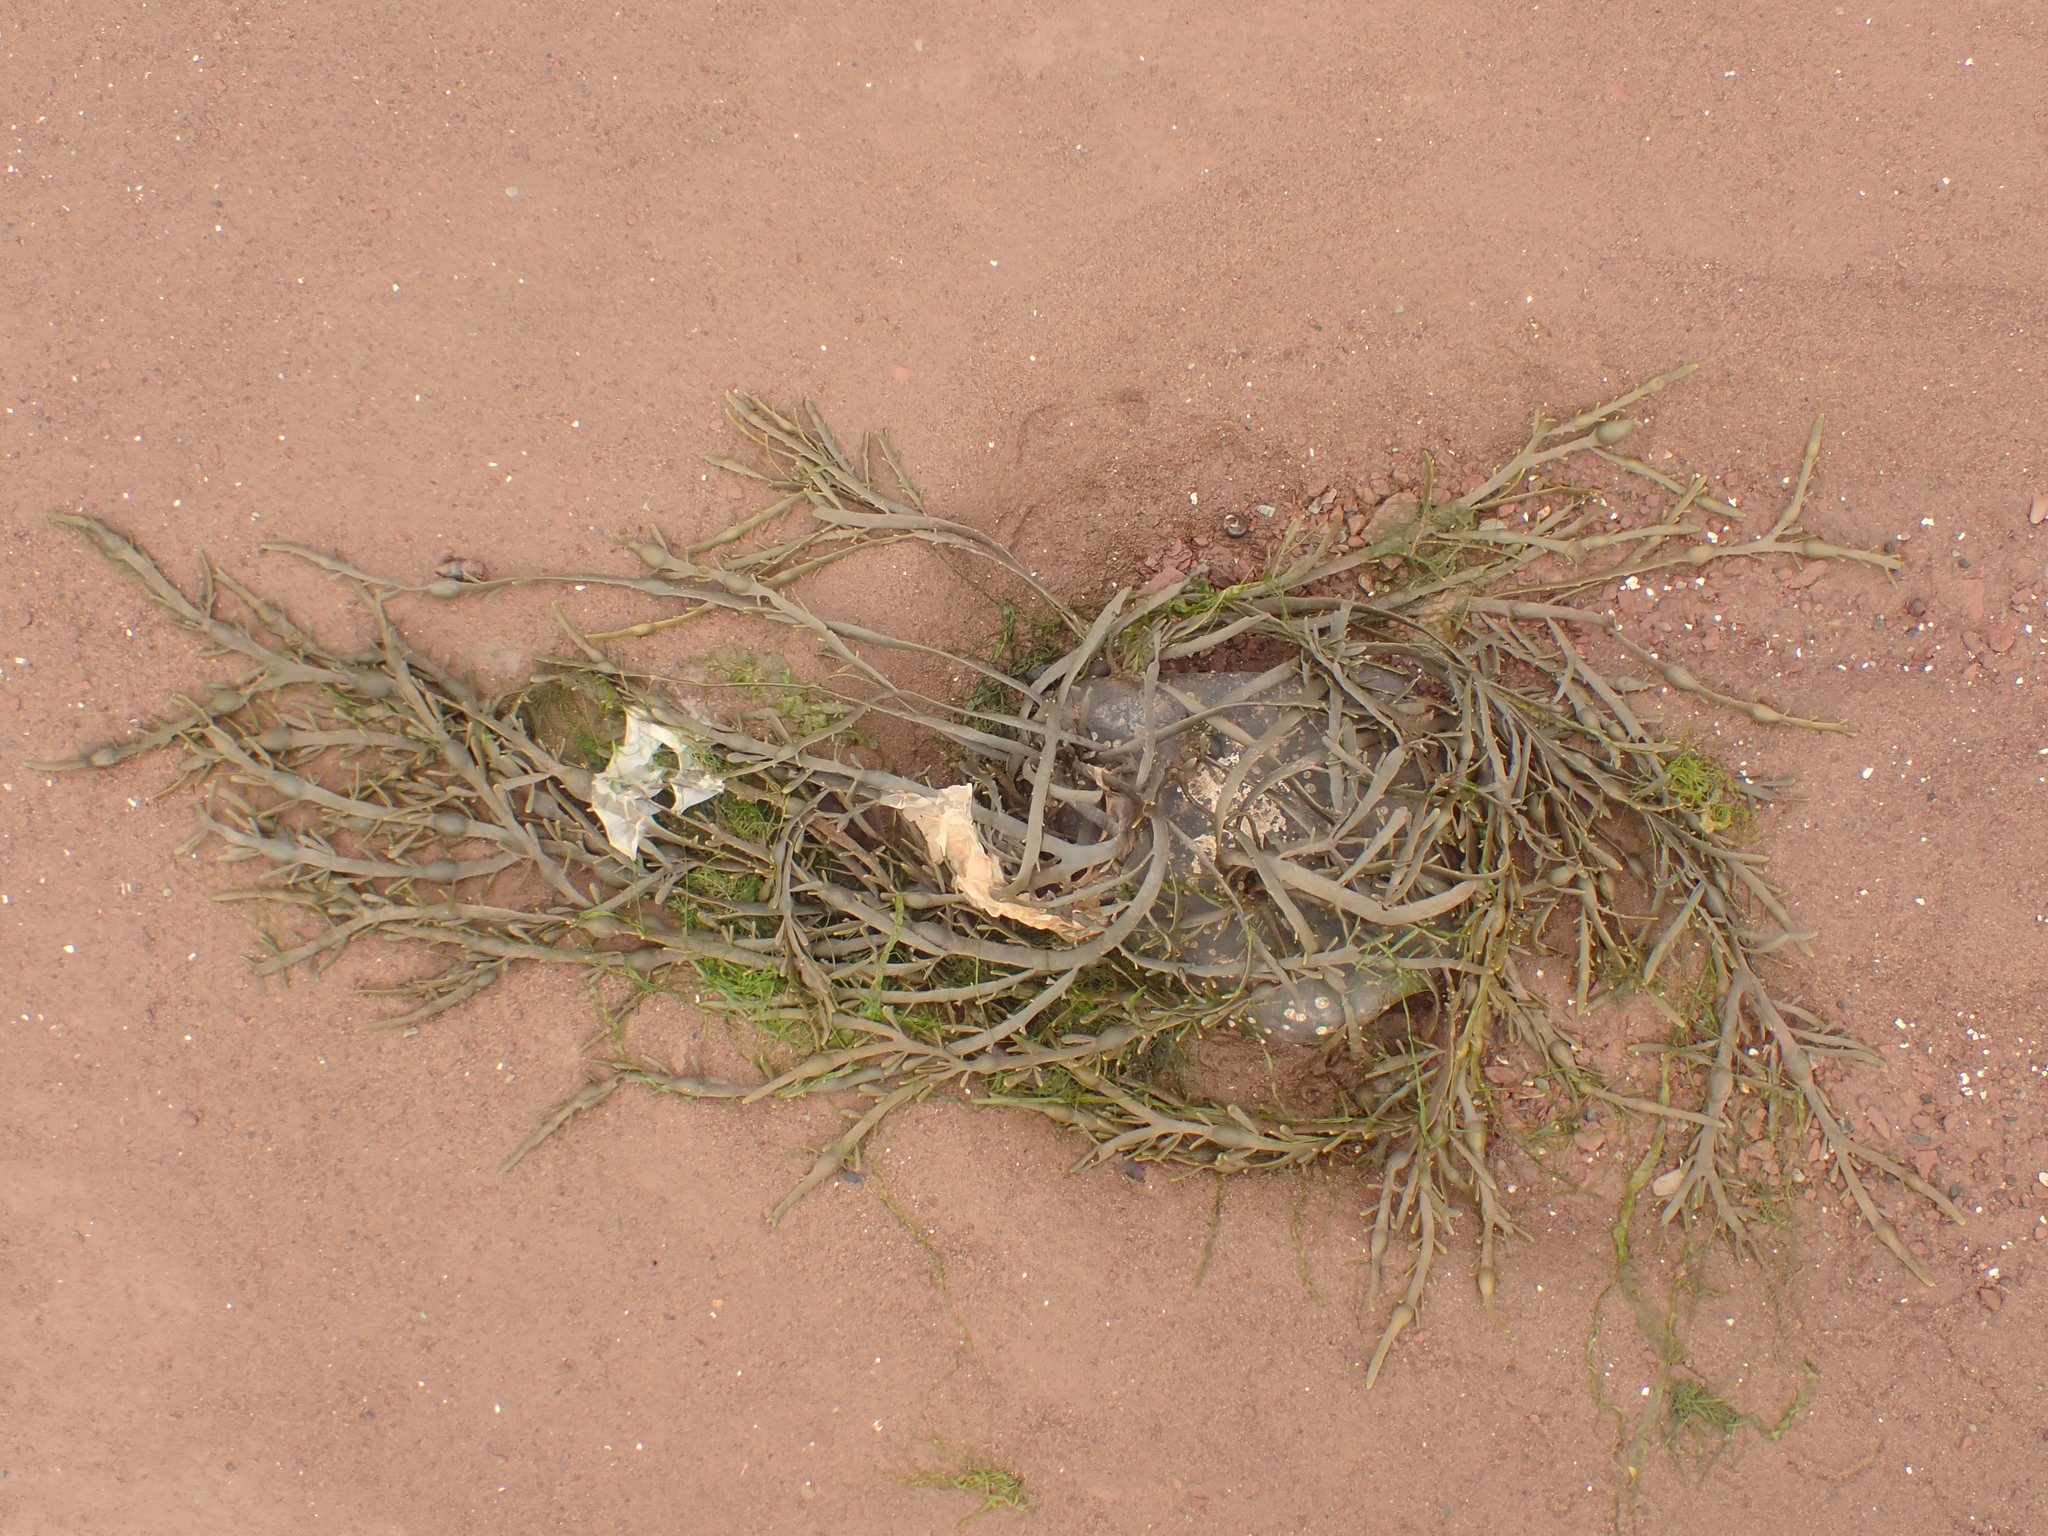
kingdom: Chromista
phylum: Ochrophyta
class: Phaeophyceae
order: Fucales
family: Fucaceae
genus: Ascophyllum
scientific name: Ascophyllum nodosum
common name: Knotted wrack
